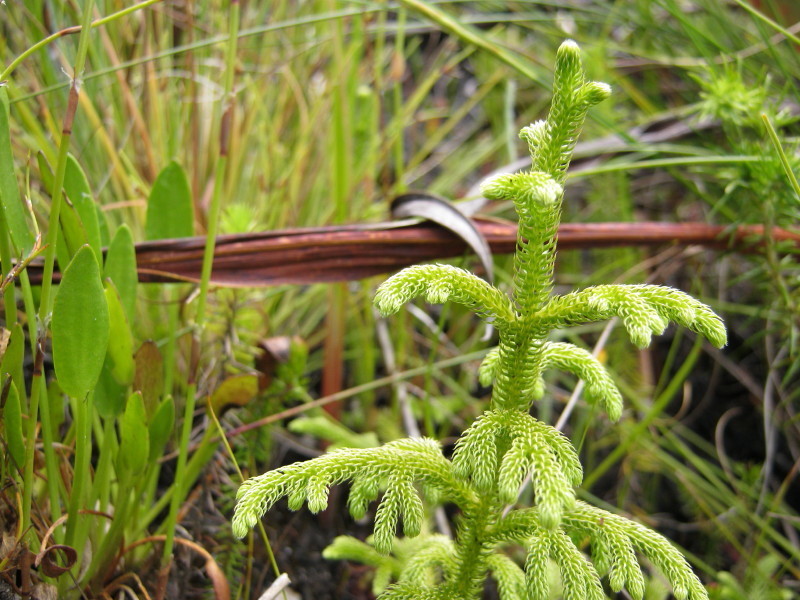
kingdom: Plantae
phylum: Tracheophyta
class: Lycopodiopsida
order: Lycopodiales
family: Lycopodiaceae
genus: Palhinhaea
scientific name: Palhinhaea cernua
